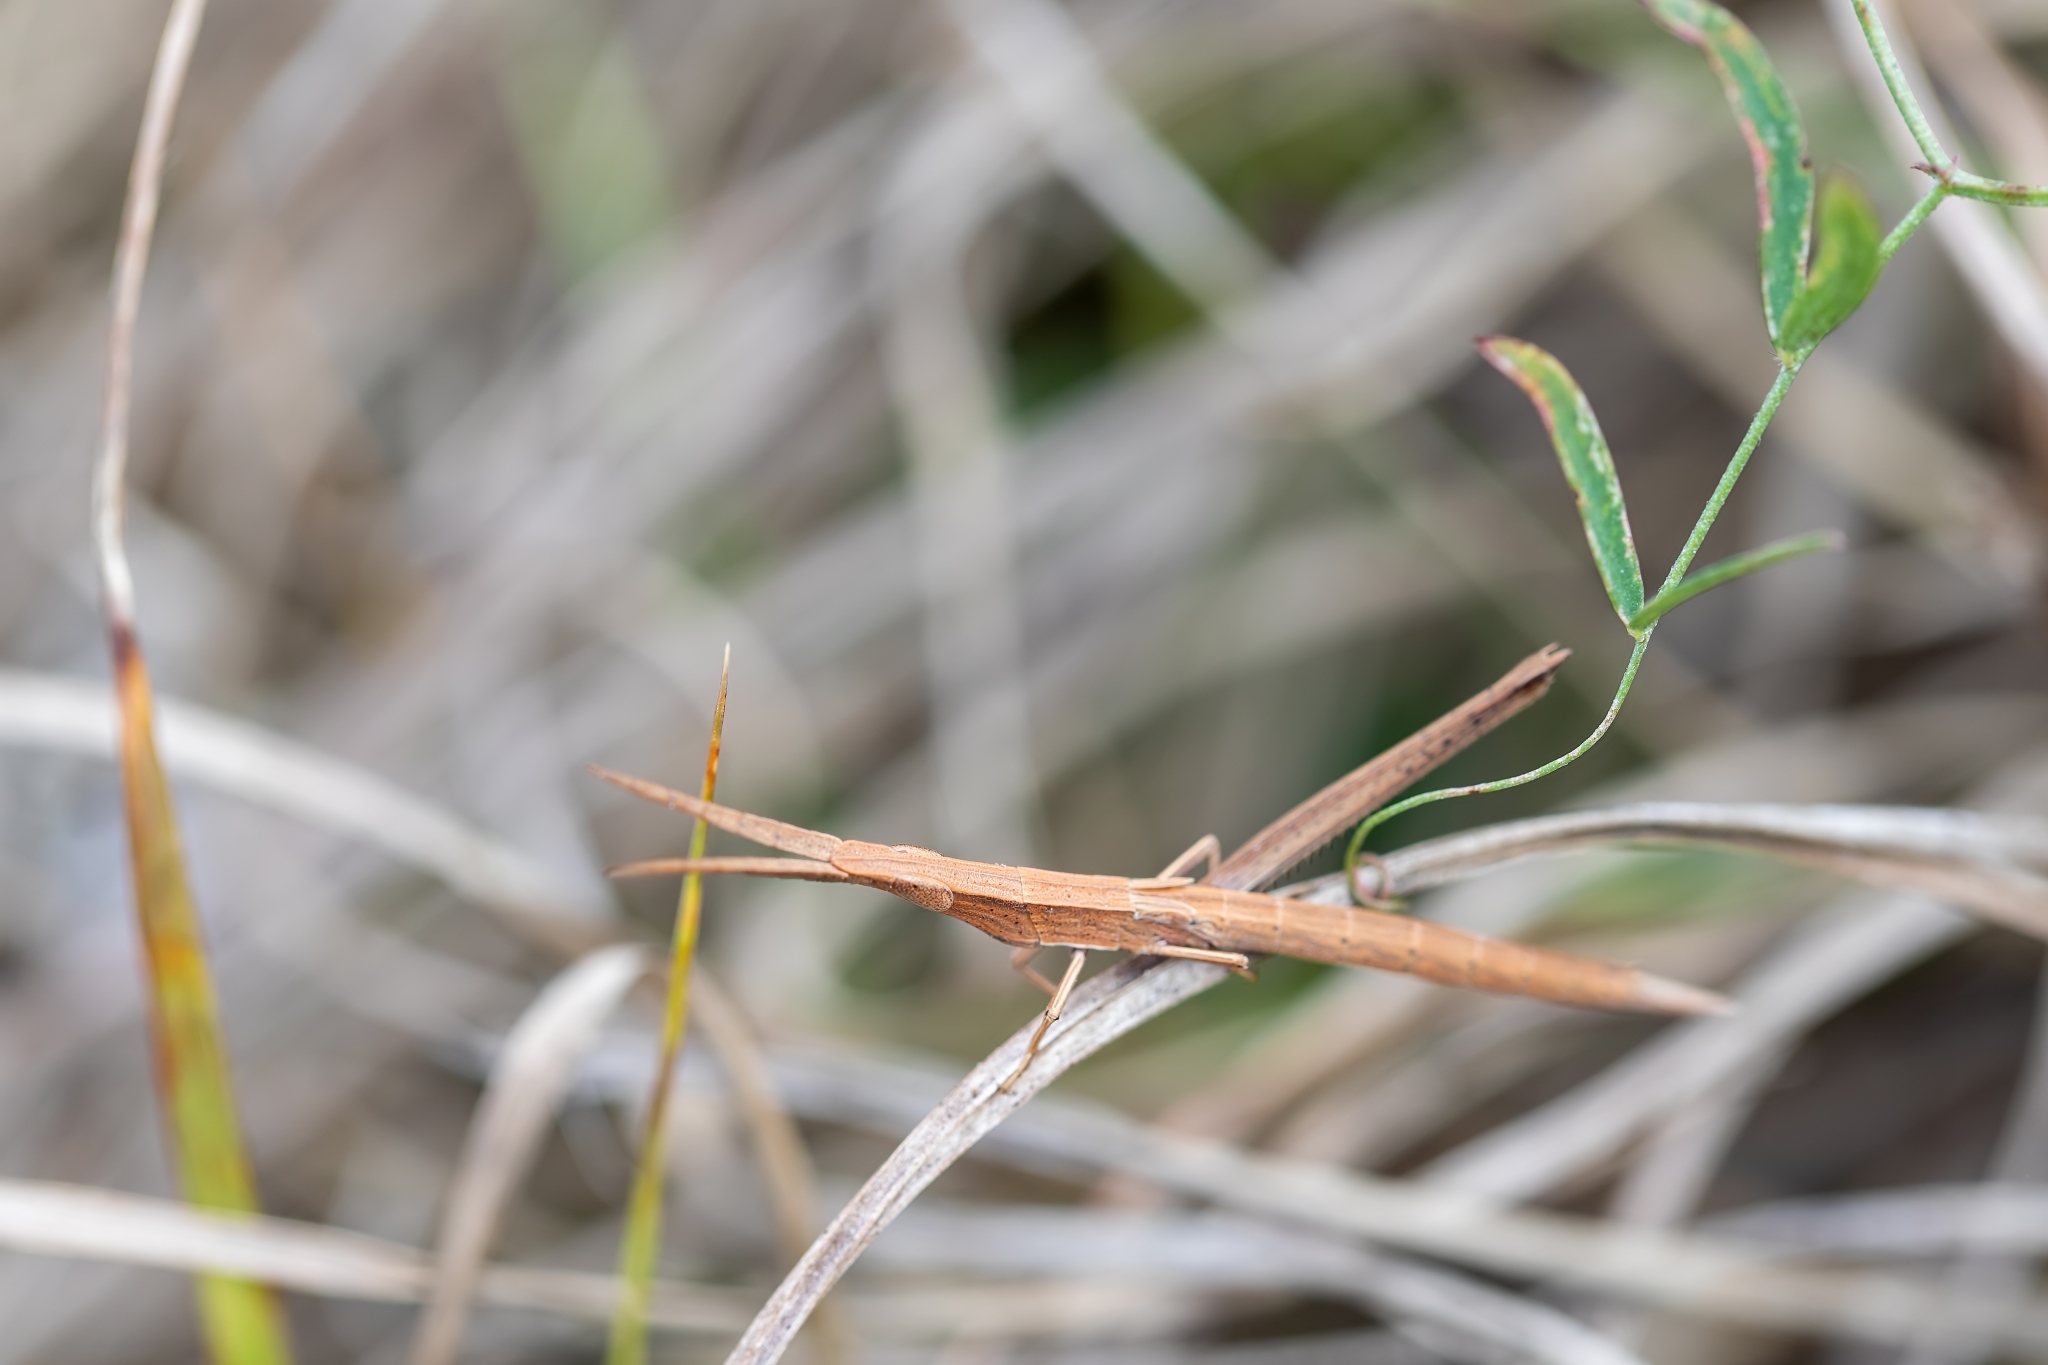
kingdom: Animalia
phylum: Arthropoda
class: Insecta
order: Orthoptera
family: Acrididae
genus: Achurum
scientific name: Achurum carinatum
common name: Long-headed toothpick grasshopper
